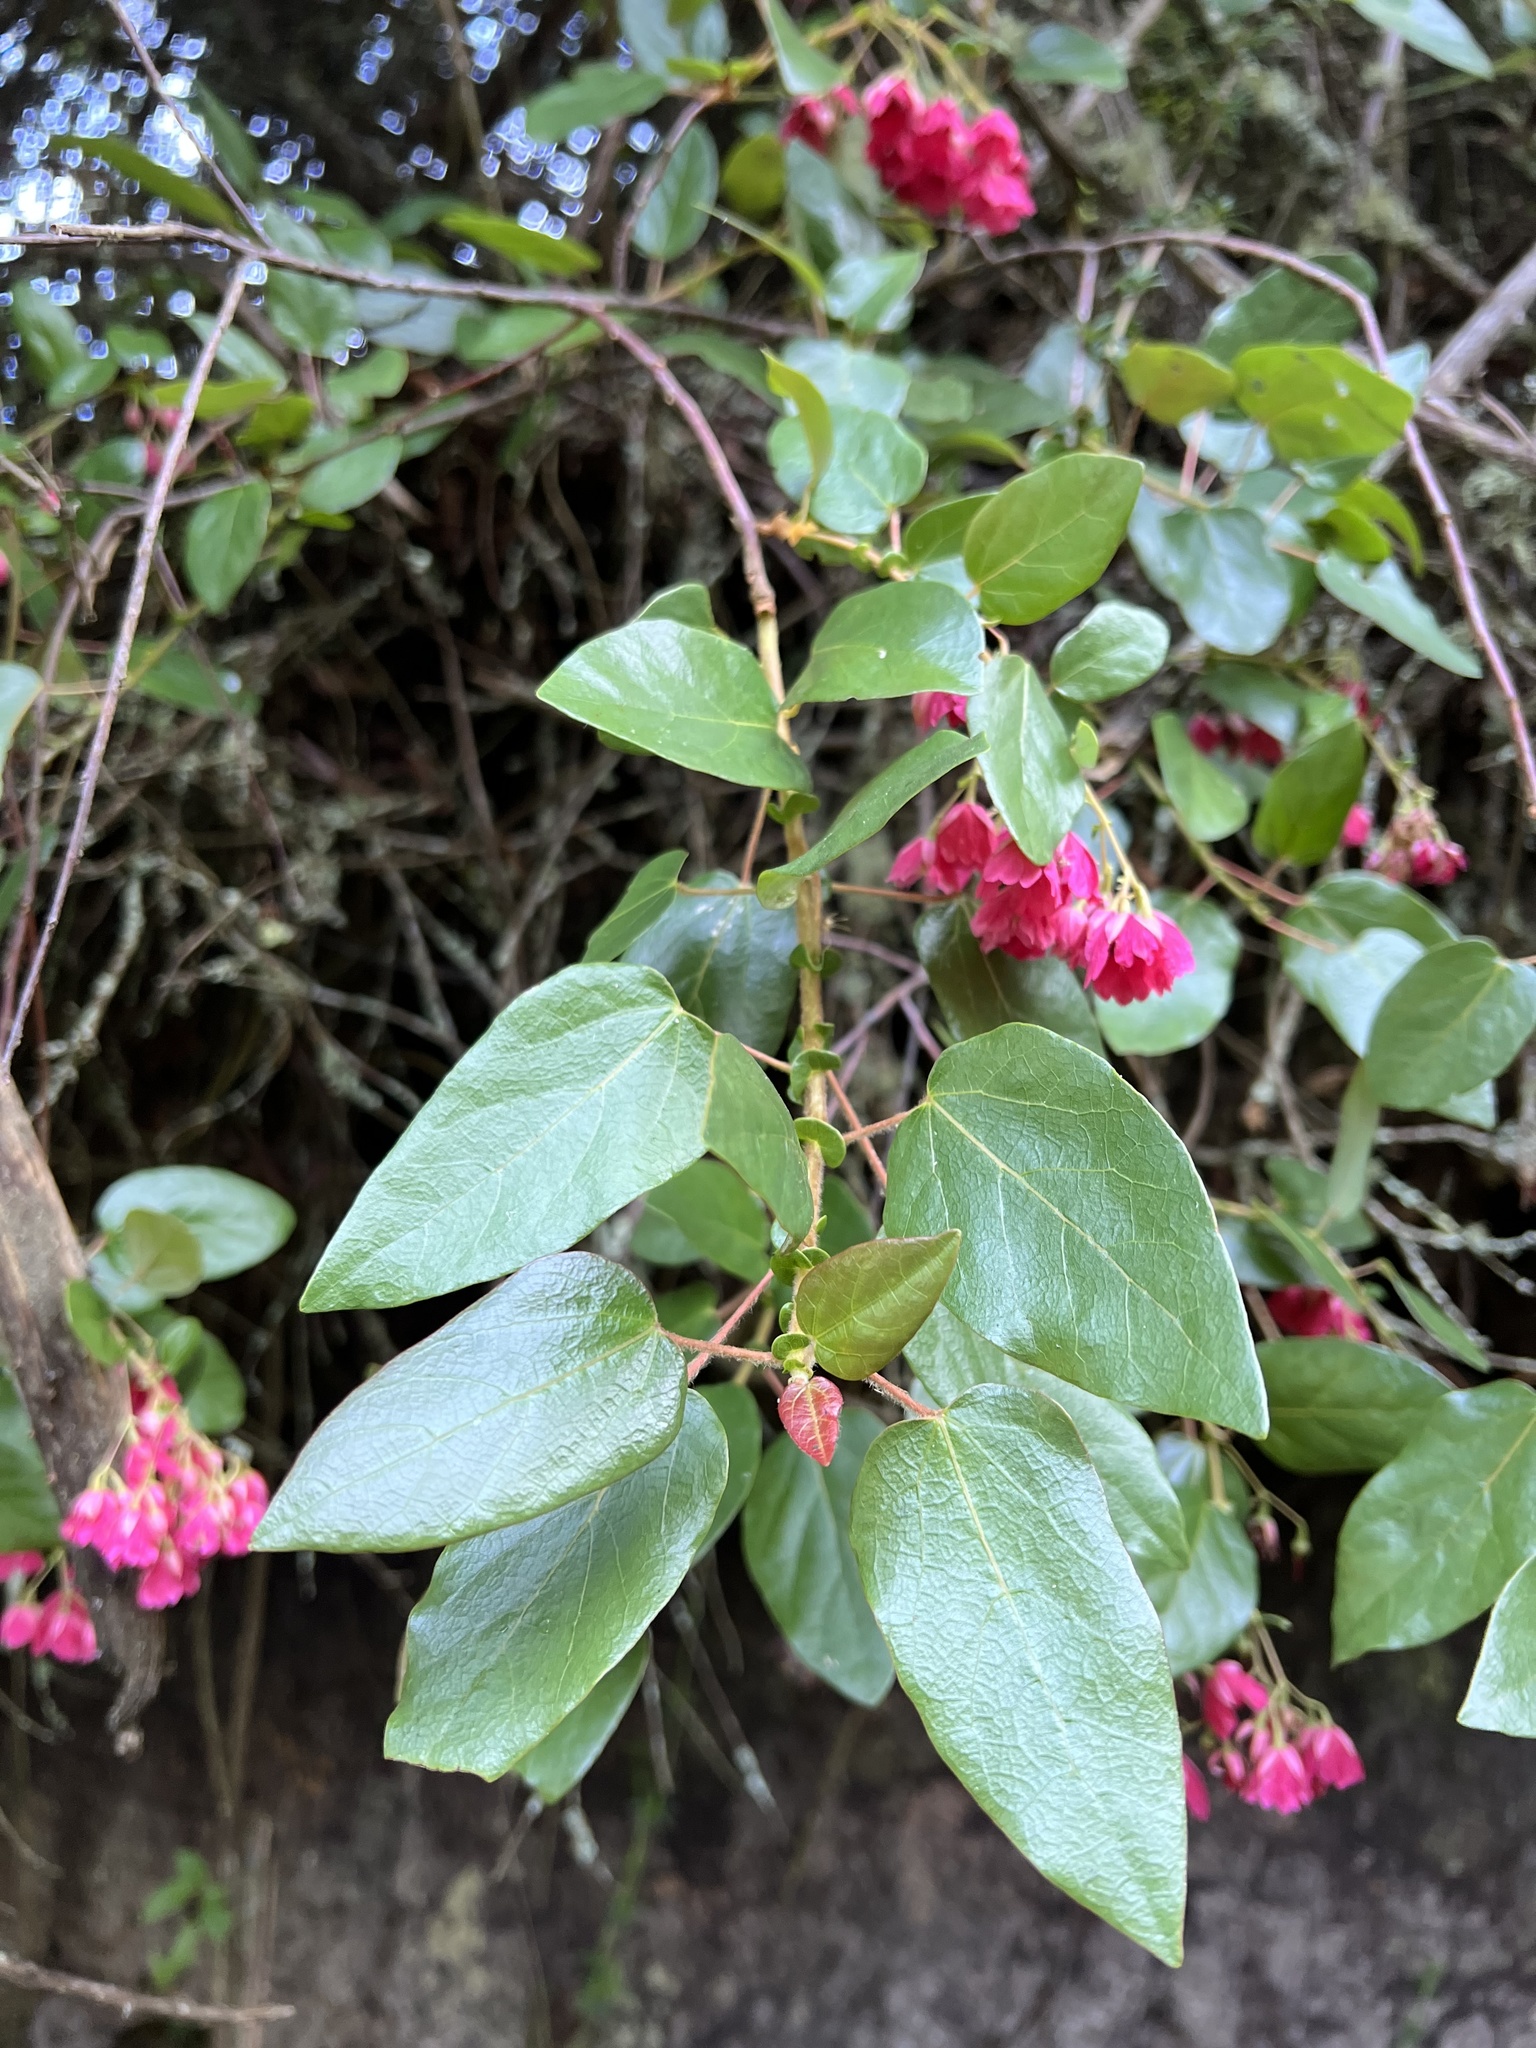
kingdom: Plantae
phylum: Tracheophyta
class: Magnoliopsida
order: Oxalidales
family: Elaeocarpaceae
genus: Vallea
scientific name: Vallea stipularis
